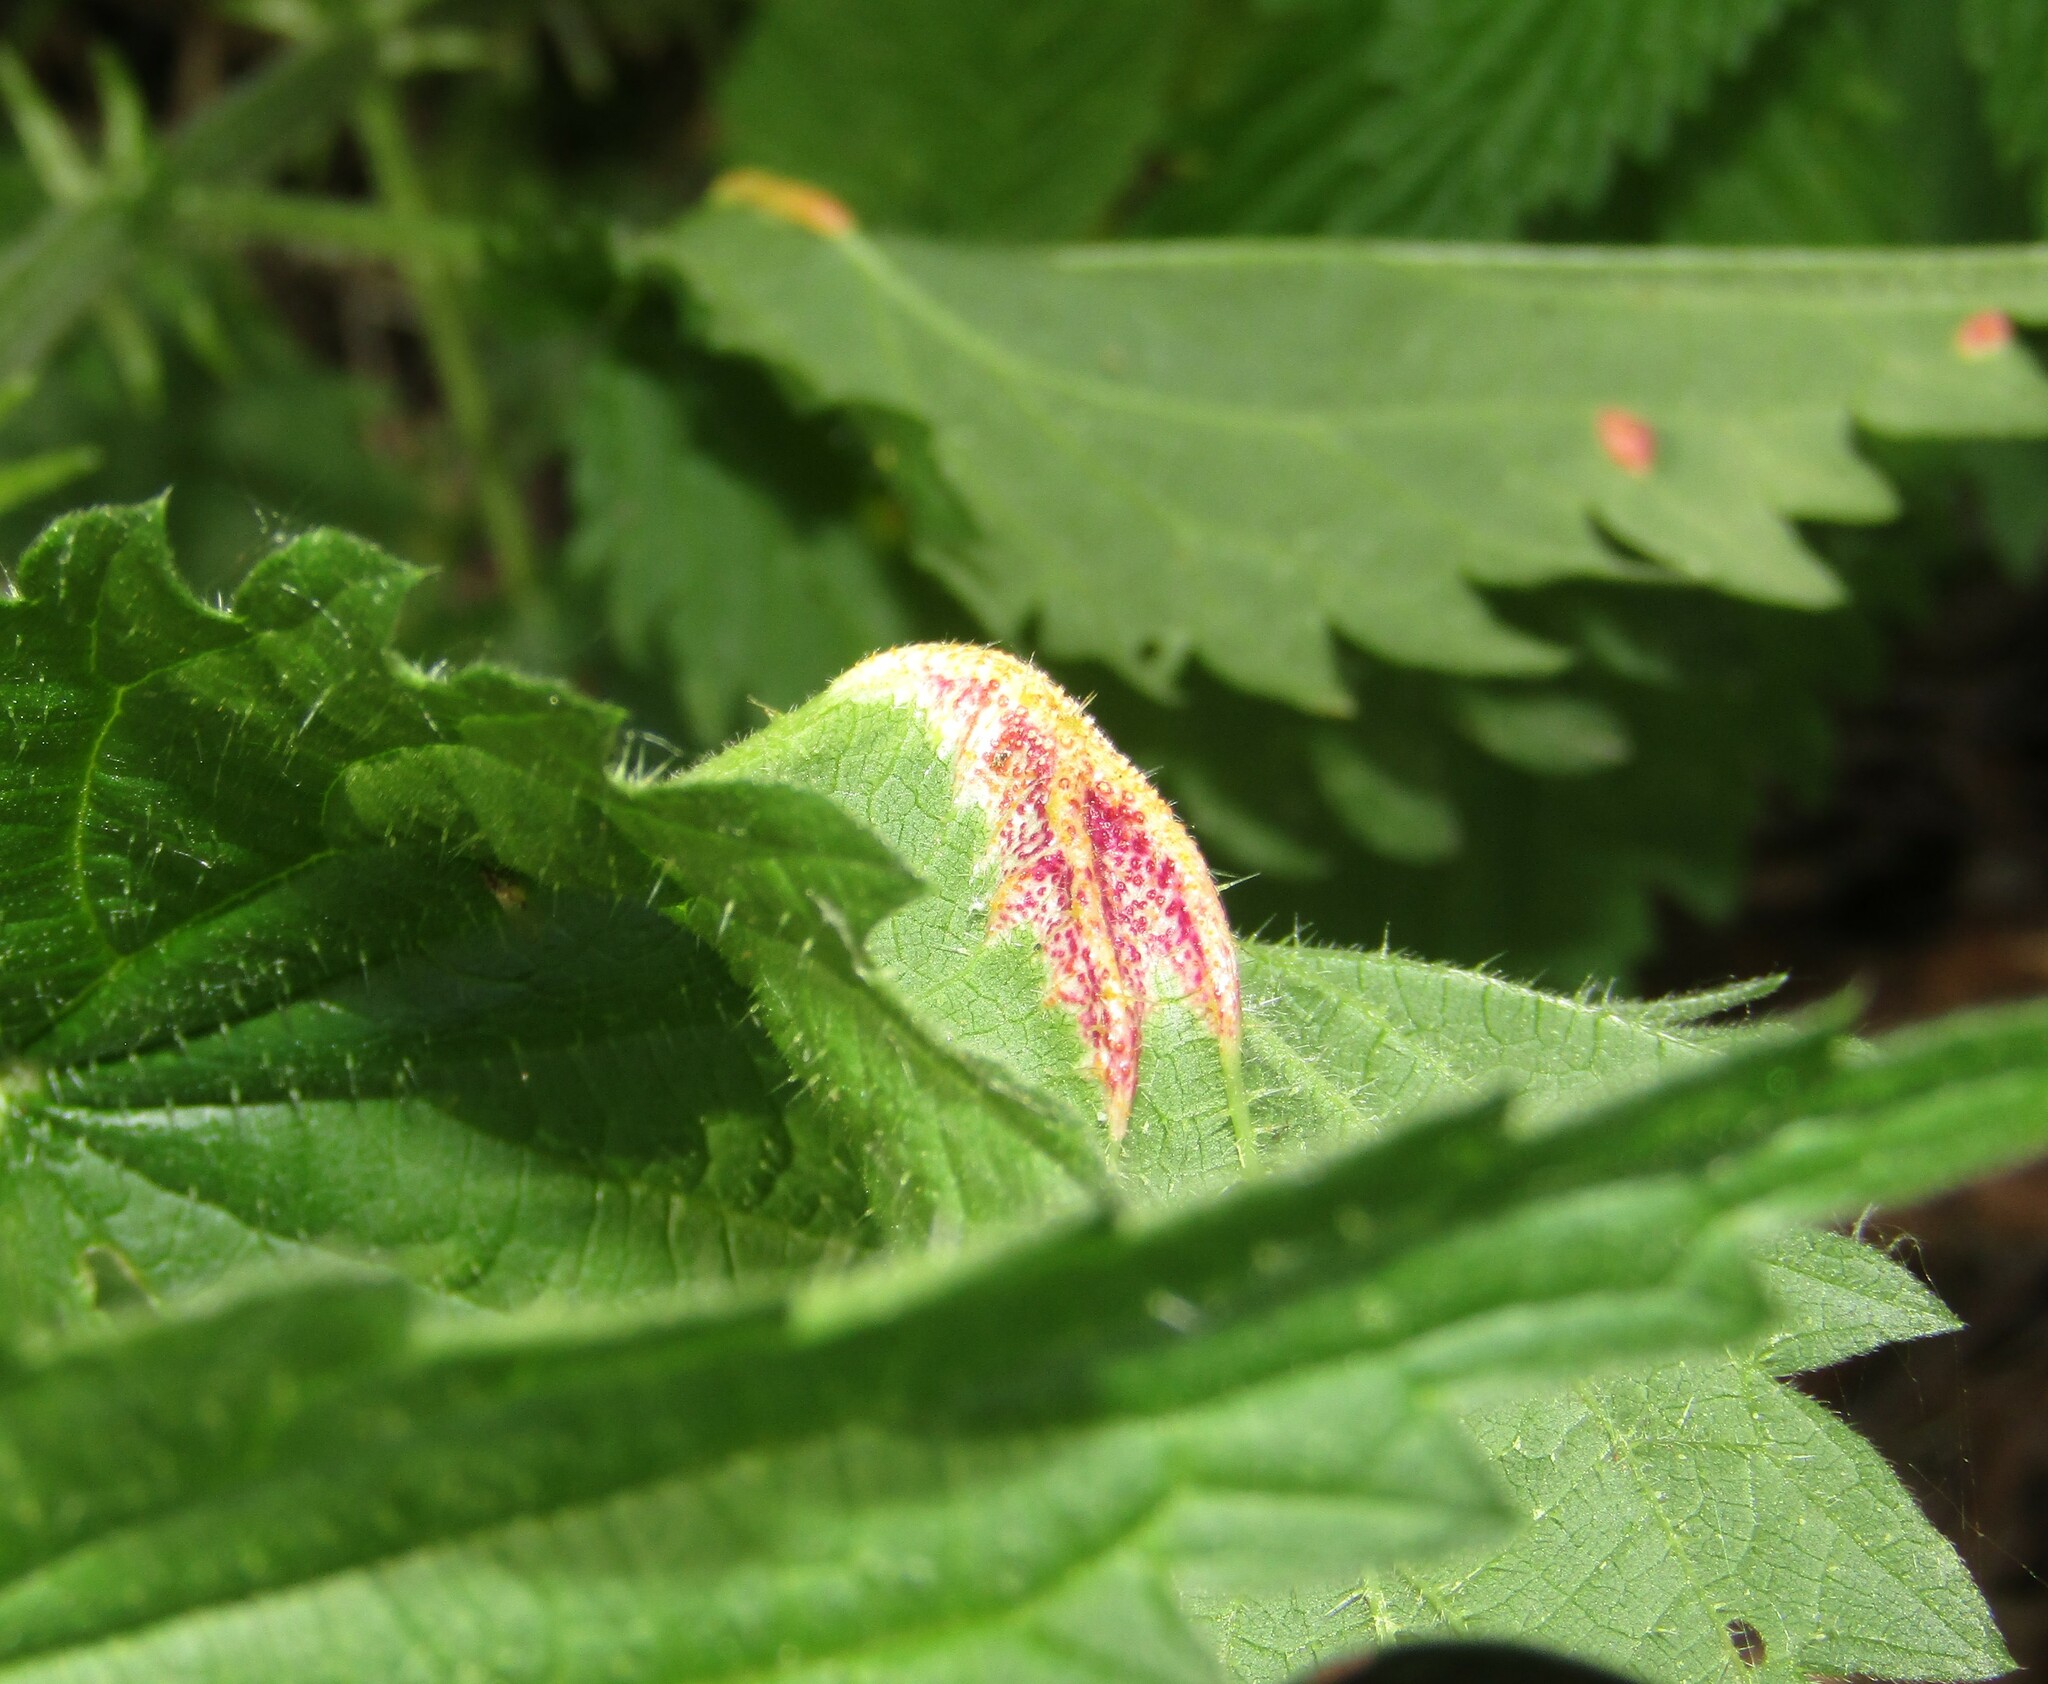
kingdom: Fungi
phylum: Basidiomycota
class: Pucciniomycetes
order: Pucciniales
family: Pucciniaceae
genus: Puccinia
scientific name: Puccinia urticata
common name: Nettle clustercup rust fungus
